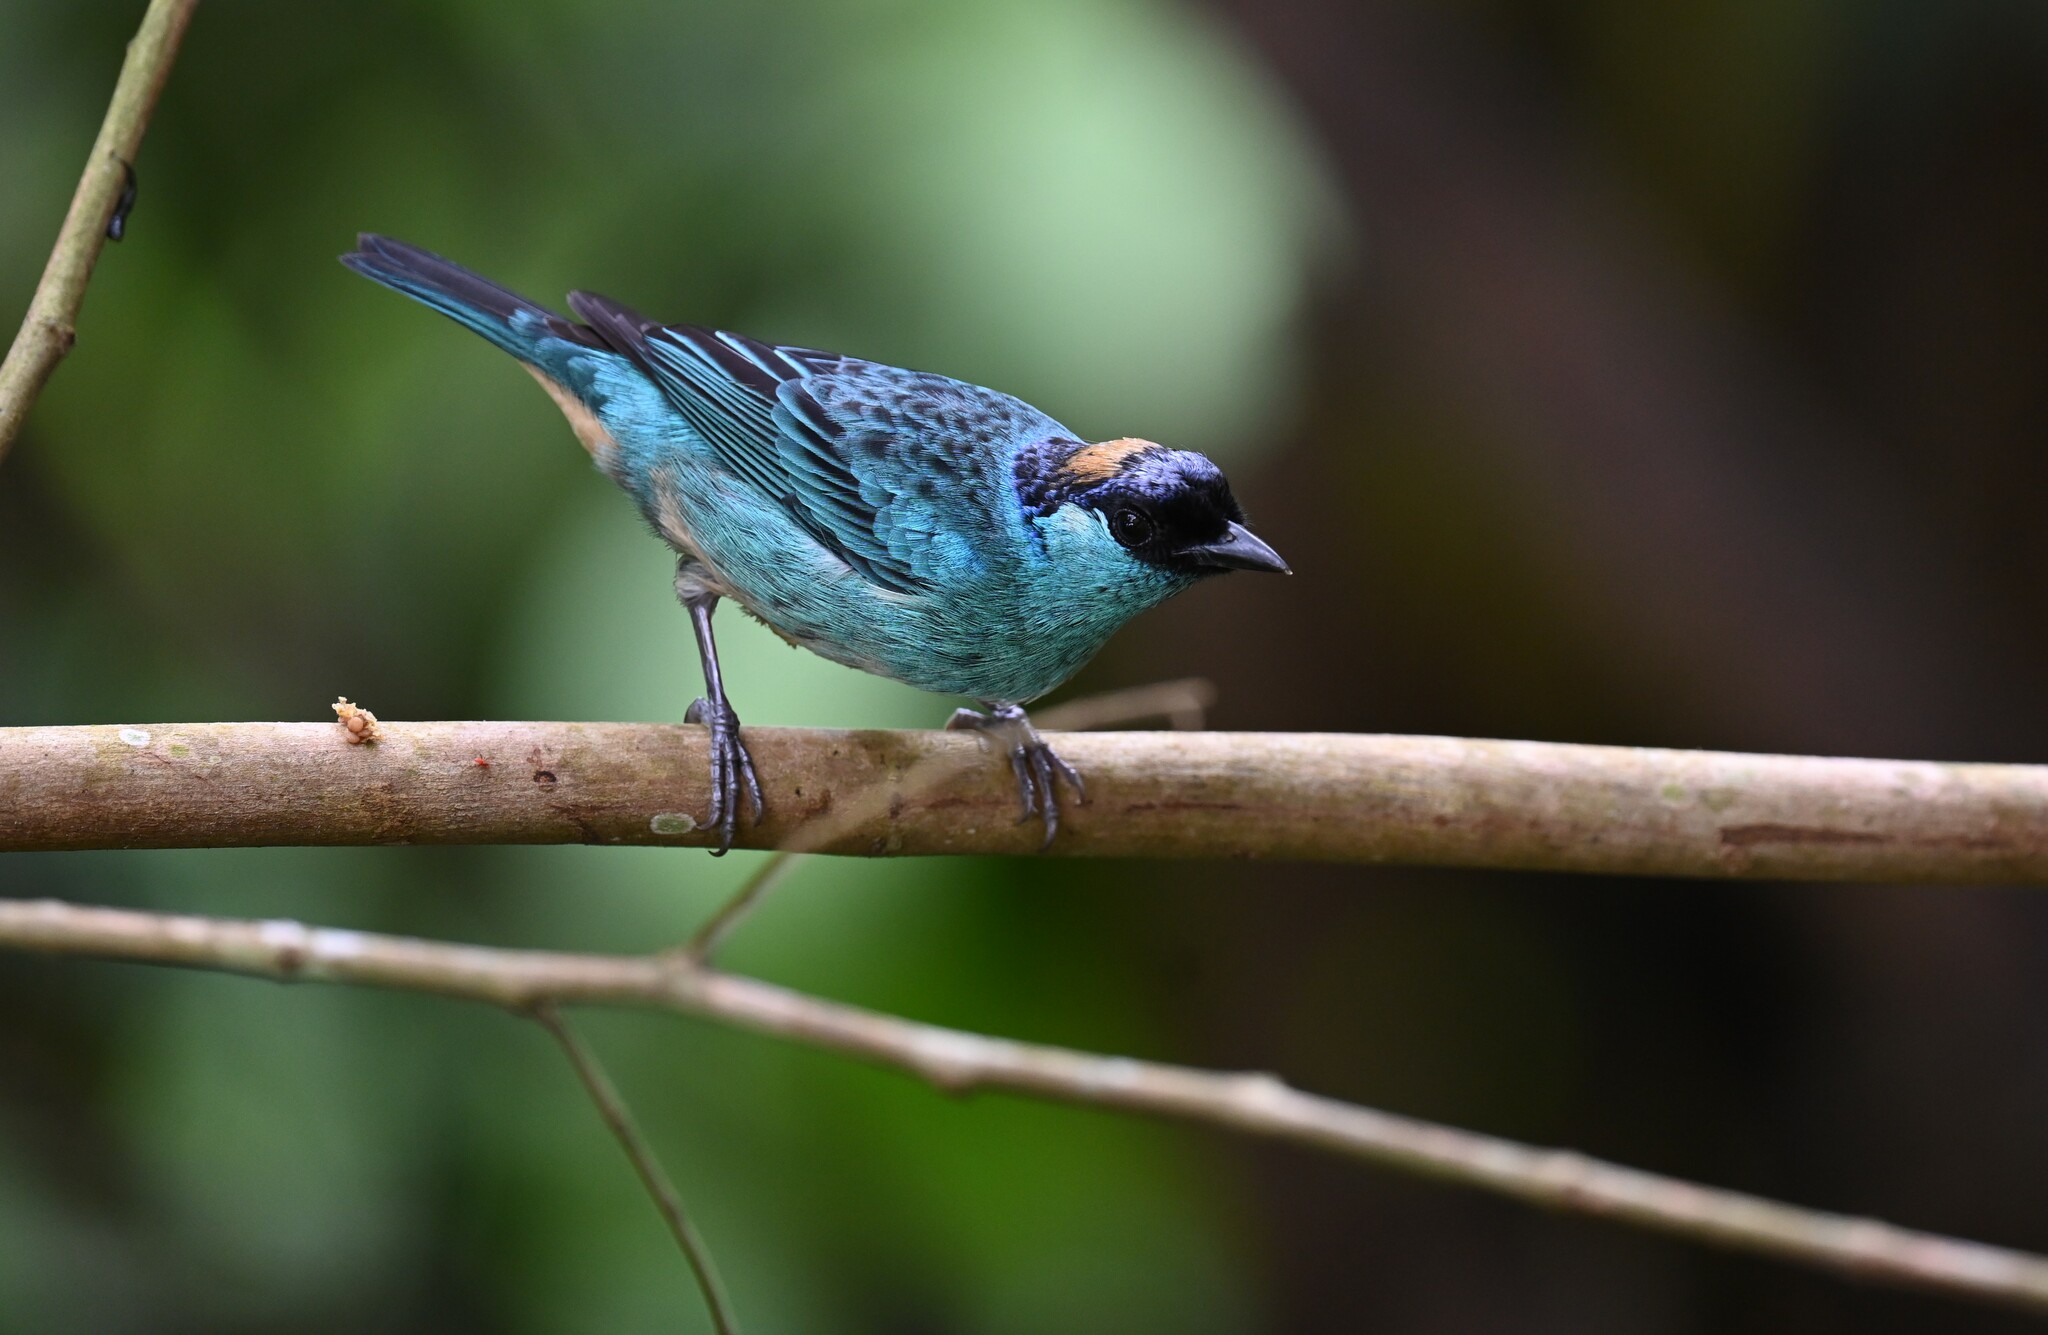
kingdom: Animalia
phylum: Chordata
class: Aves
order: Passeriformes
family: Thraupidae
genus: Chalcothraupis
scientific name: Chalcothraupis ruficervix
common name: Golden-naped tanager
